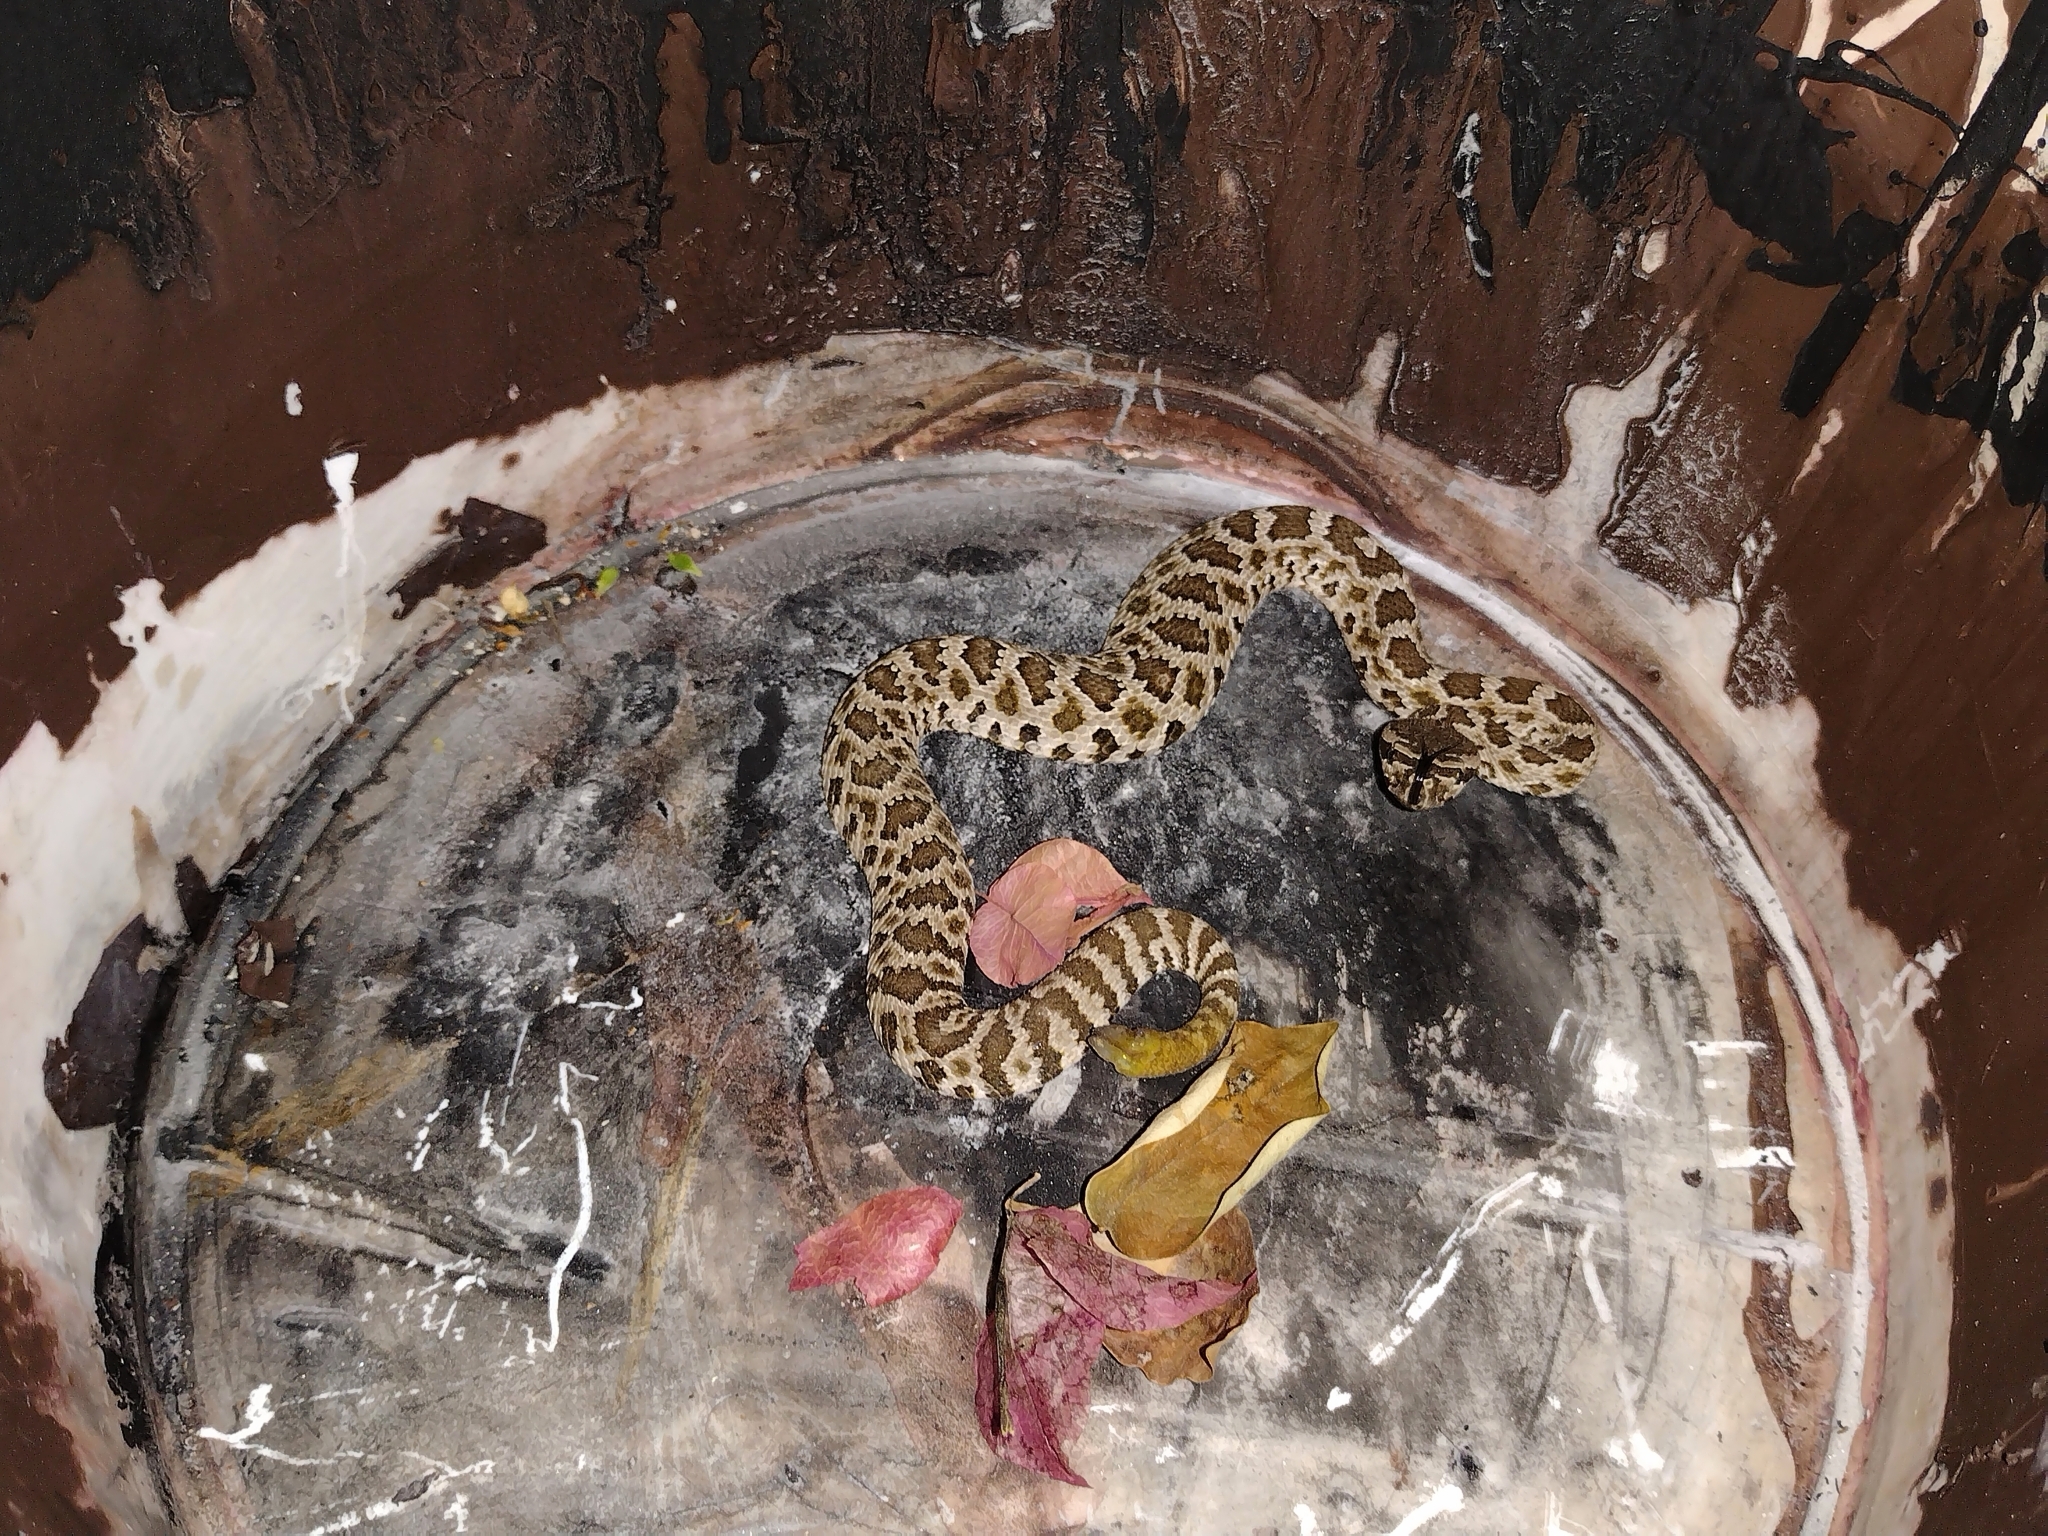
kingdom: Animalia
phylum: Chordata
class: Squamata
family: Viperidae
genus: Crotalus
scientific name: Crotalus oreganus
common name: Abyssus
